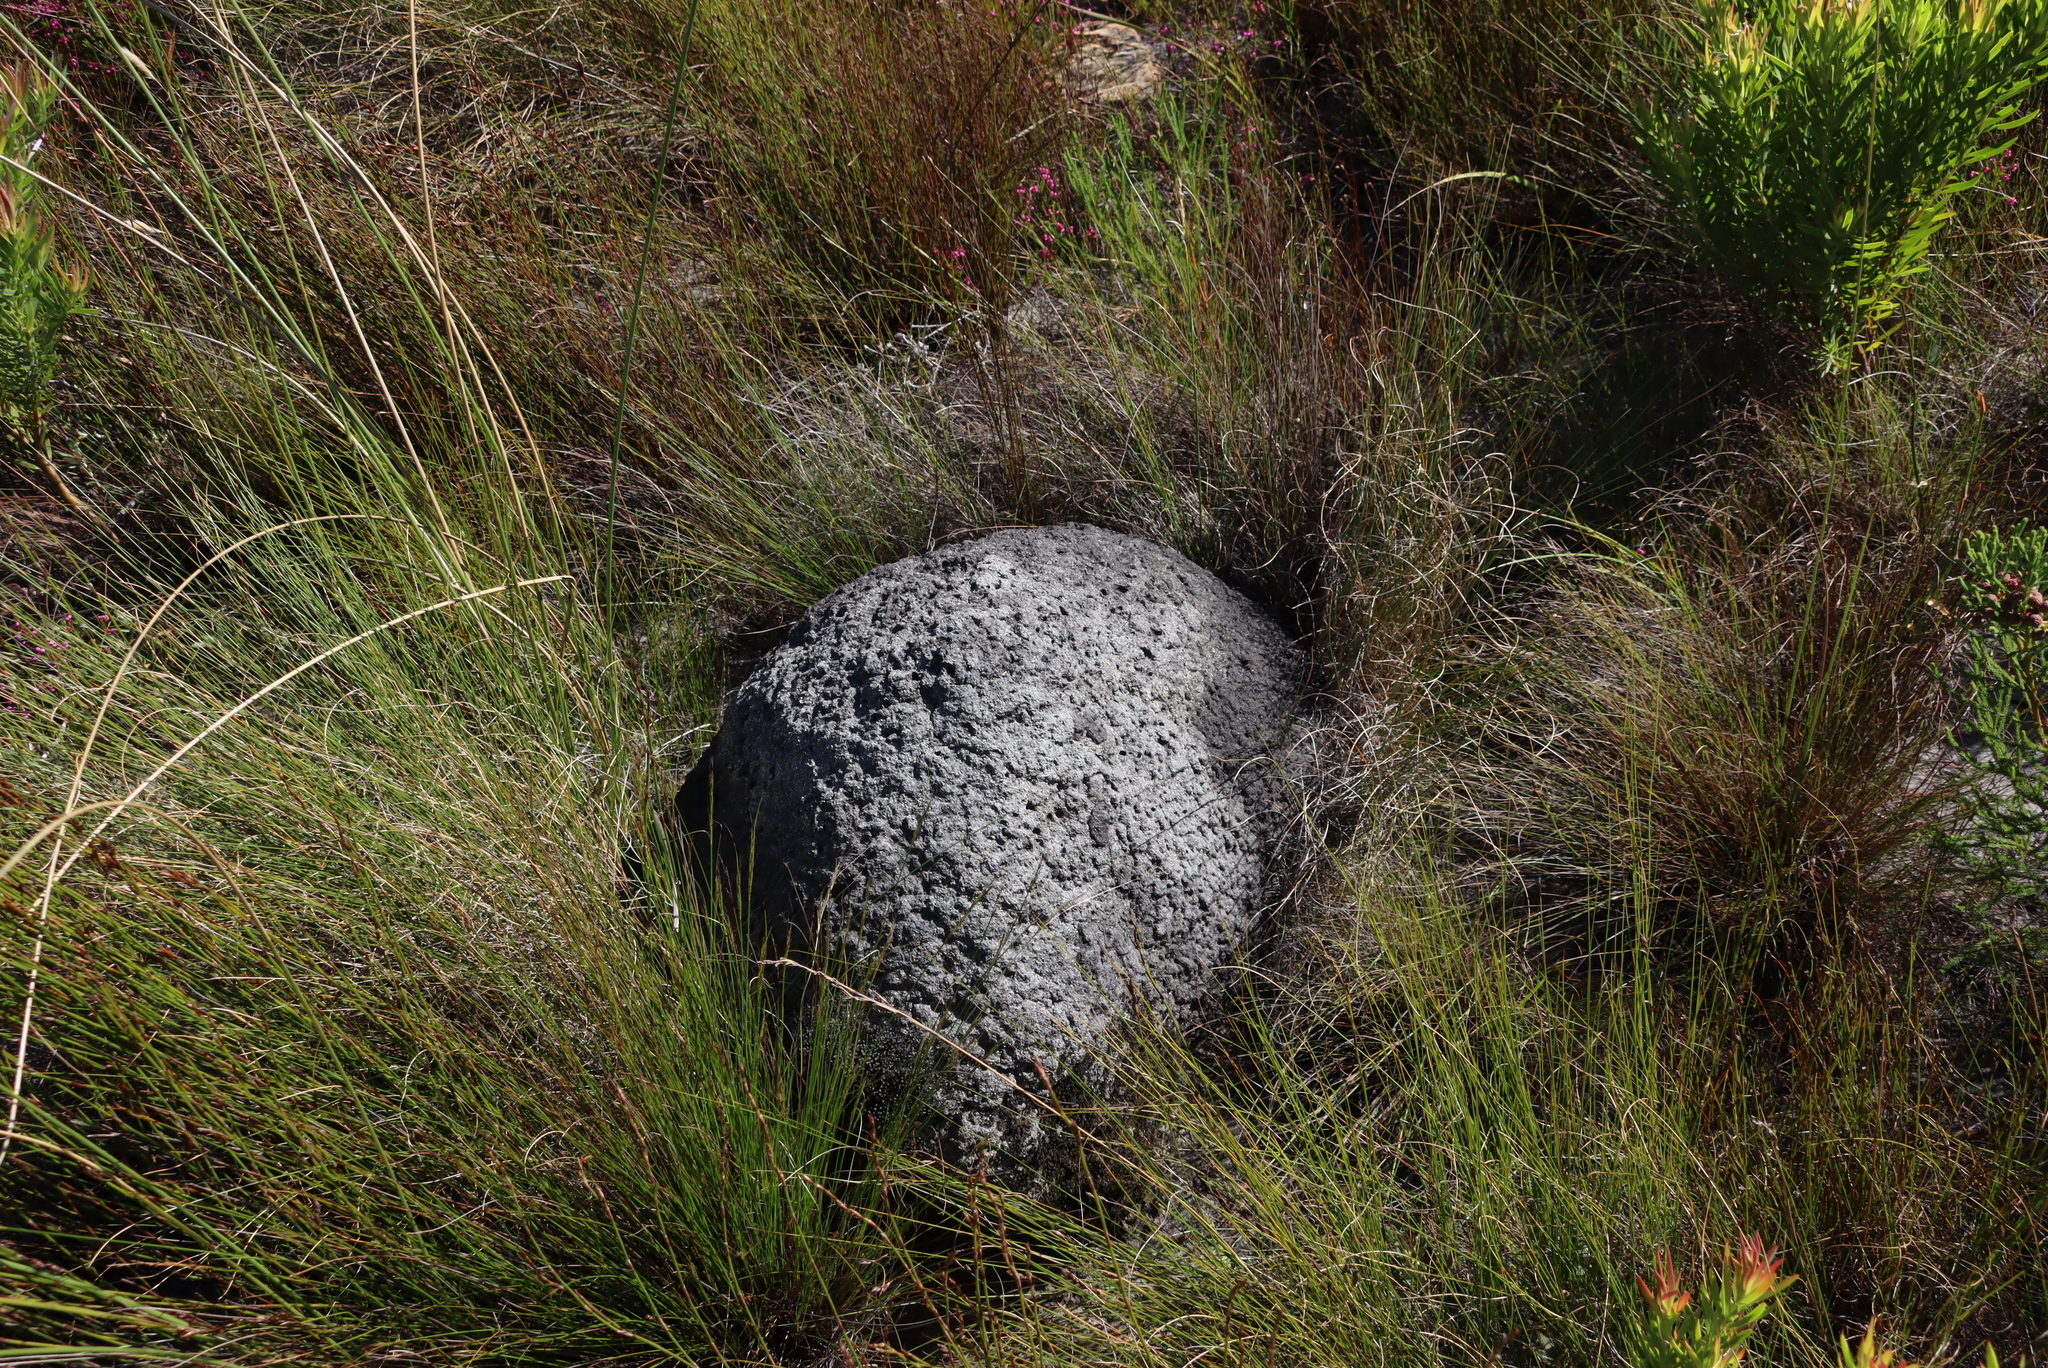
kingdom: Animalia
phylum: Arthropoda
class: Insecta
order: Blattodea
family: Termitidae
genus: Amitermes
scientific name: Amitermes hastatus
